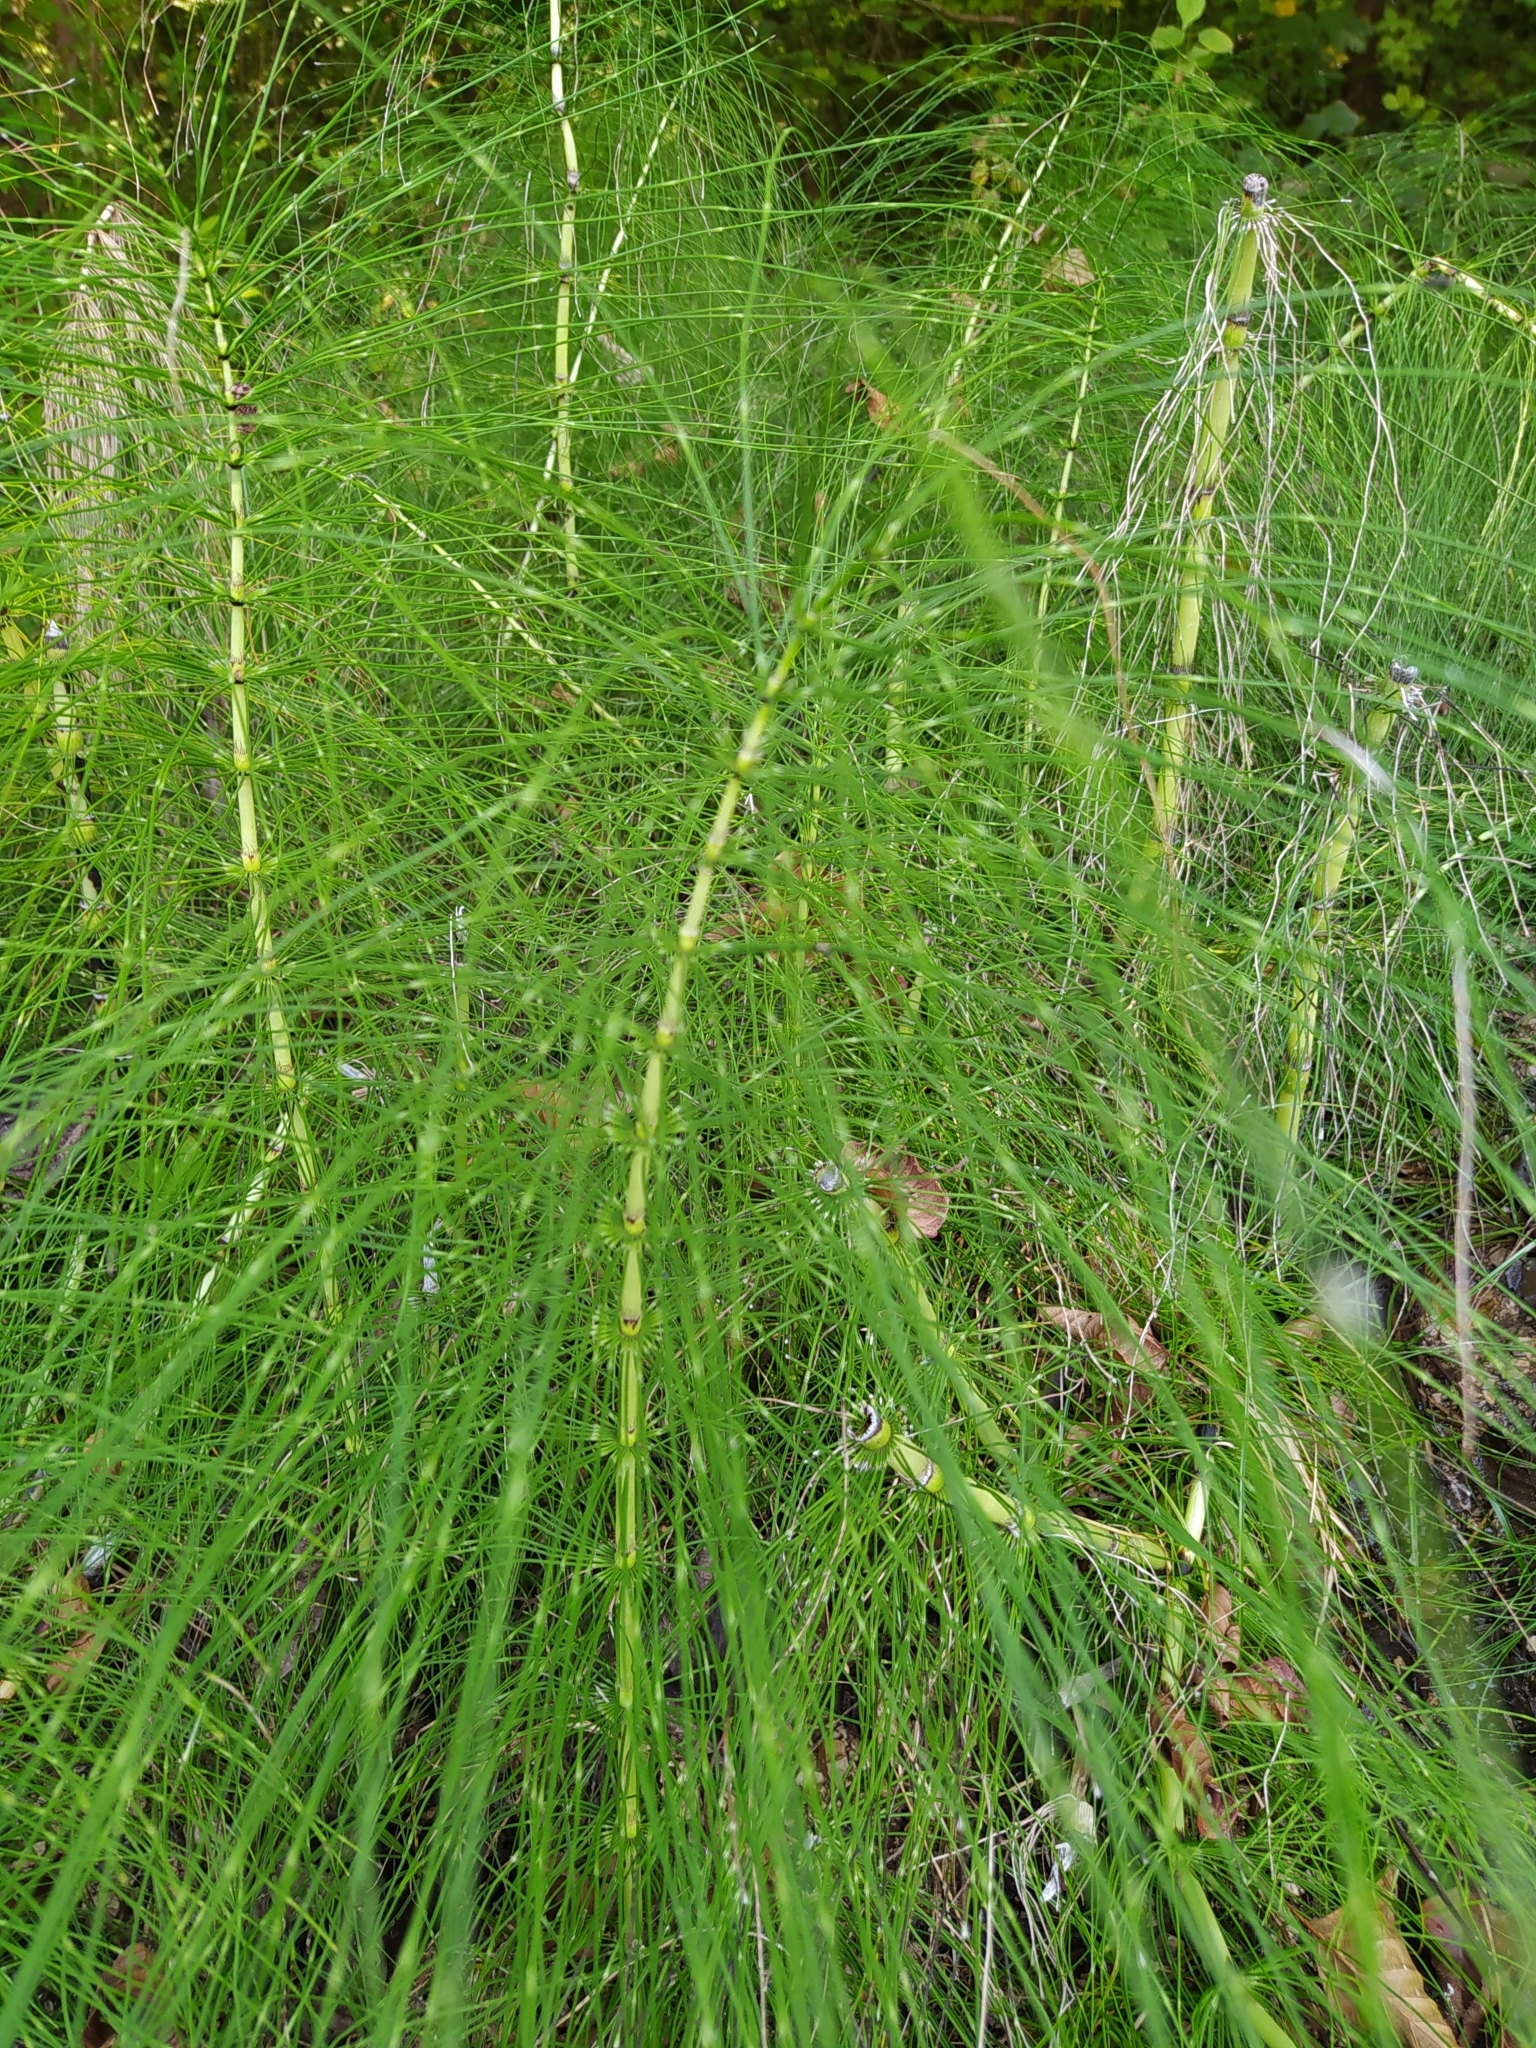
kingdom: Plantae
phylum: Tracheophyta
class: Polypodiopsida
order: Equisetales
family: Equisetaceae
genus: Equisetum
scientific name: Equisetum telmateia
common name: Great horsetail
